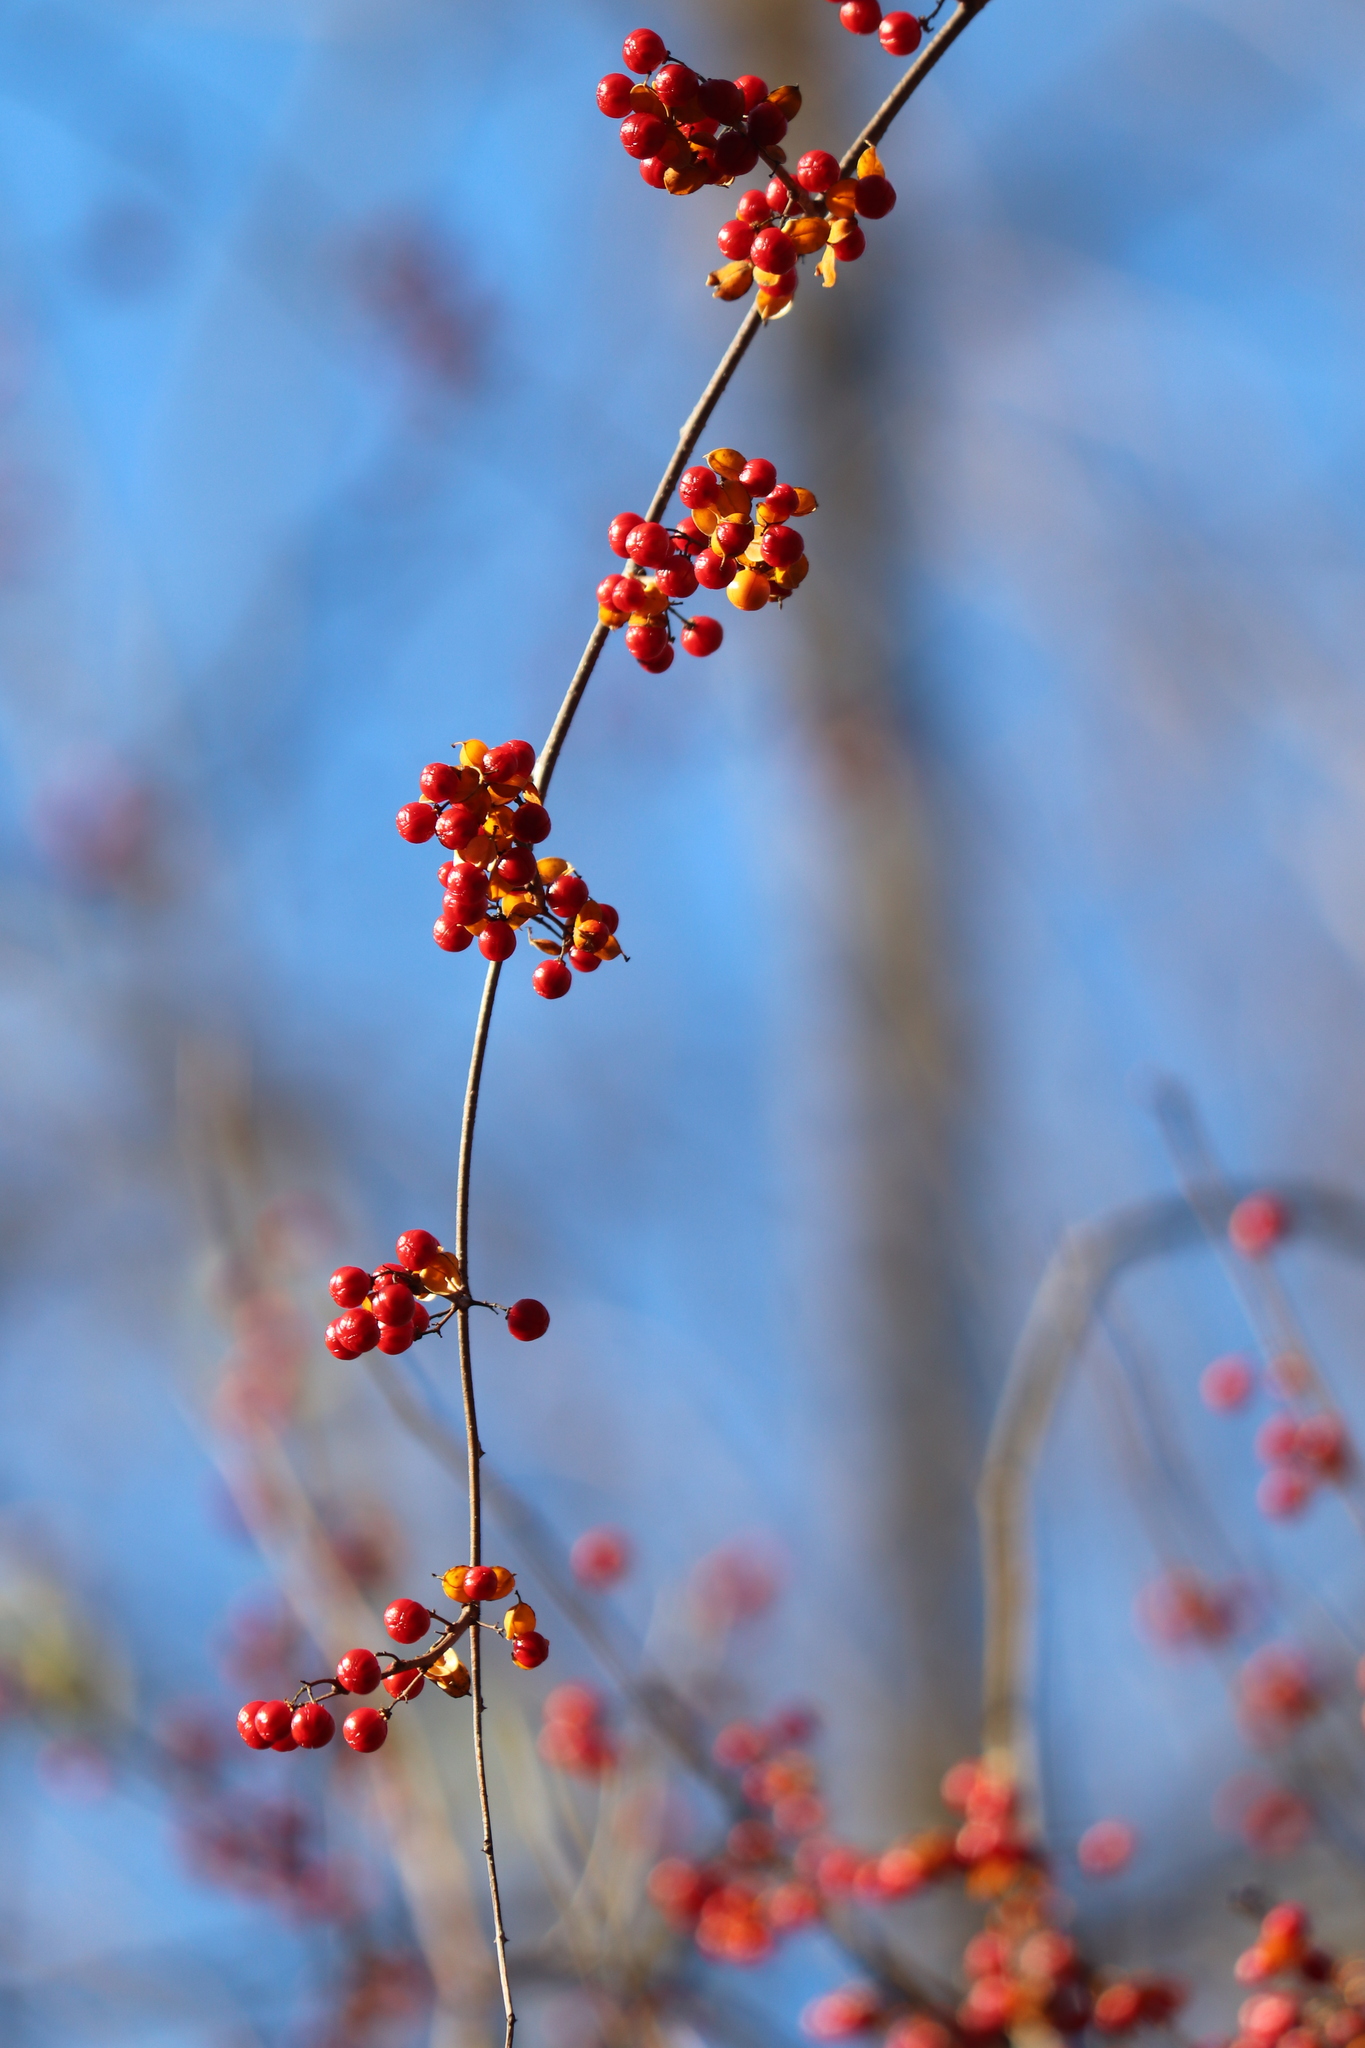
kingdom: Plantae
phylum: Tracheophyta
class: Magnoliopsida
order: Celastrales
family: Celastraceae
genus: Celastrus
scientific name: Celastrus orbiculatus
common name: Oriental bittersweet
